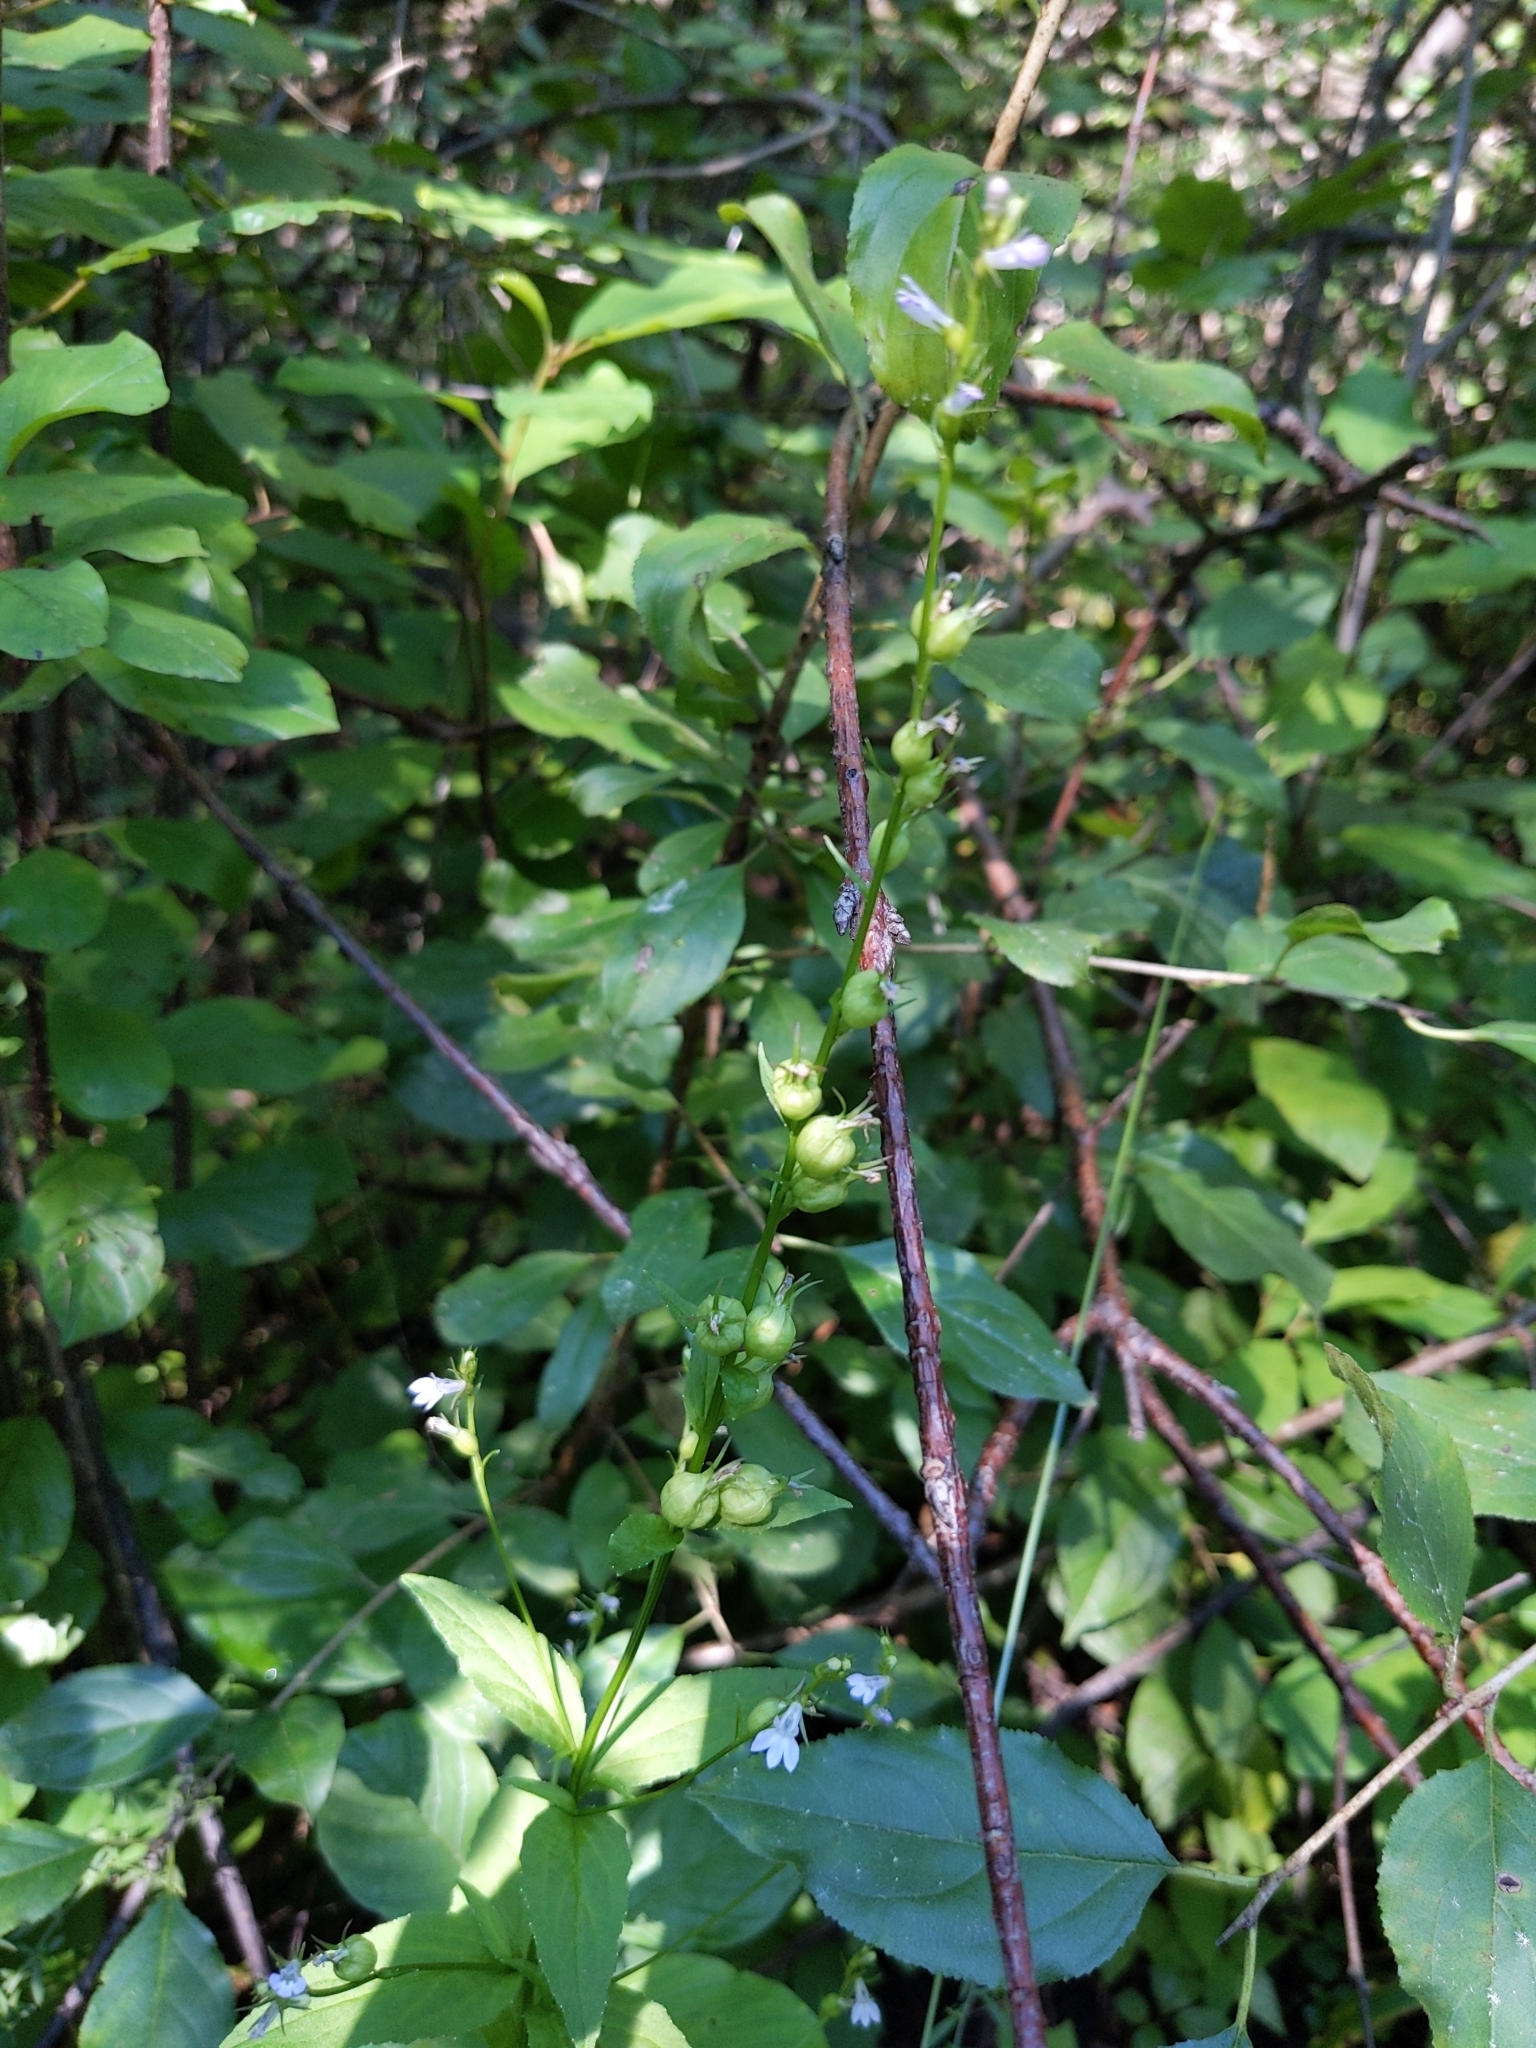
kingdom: Plantae
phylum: Tracheophyta
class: Magnoliopsida
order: Asterales
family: Campanulaceae
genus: Lobelia
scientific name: Lobelia inflata
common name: Indian tobacco
